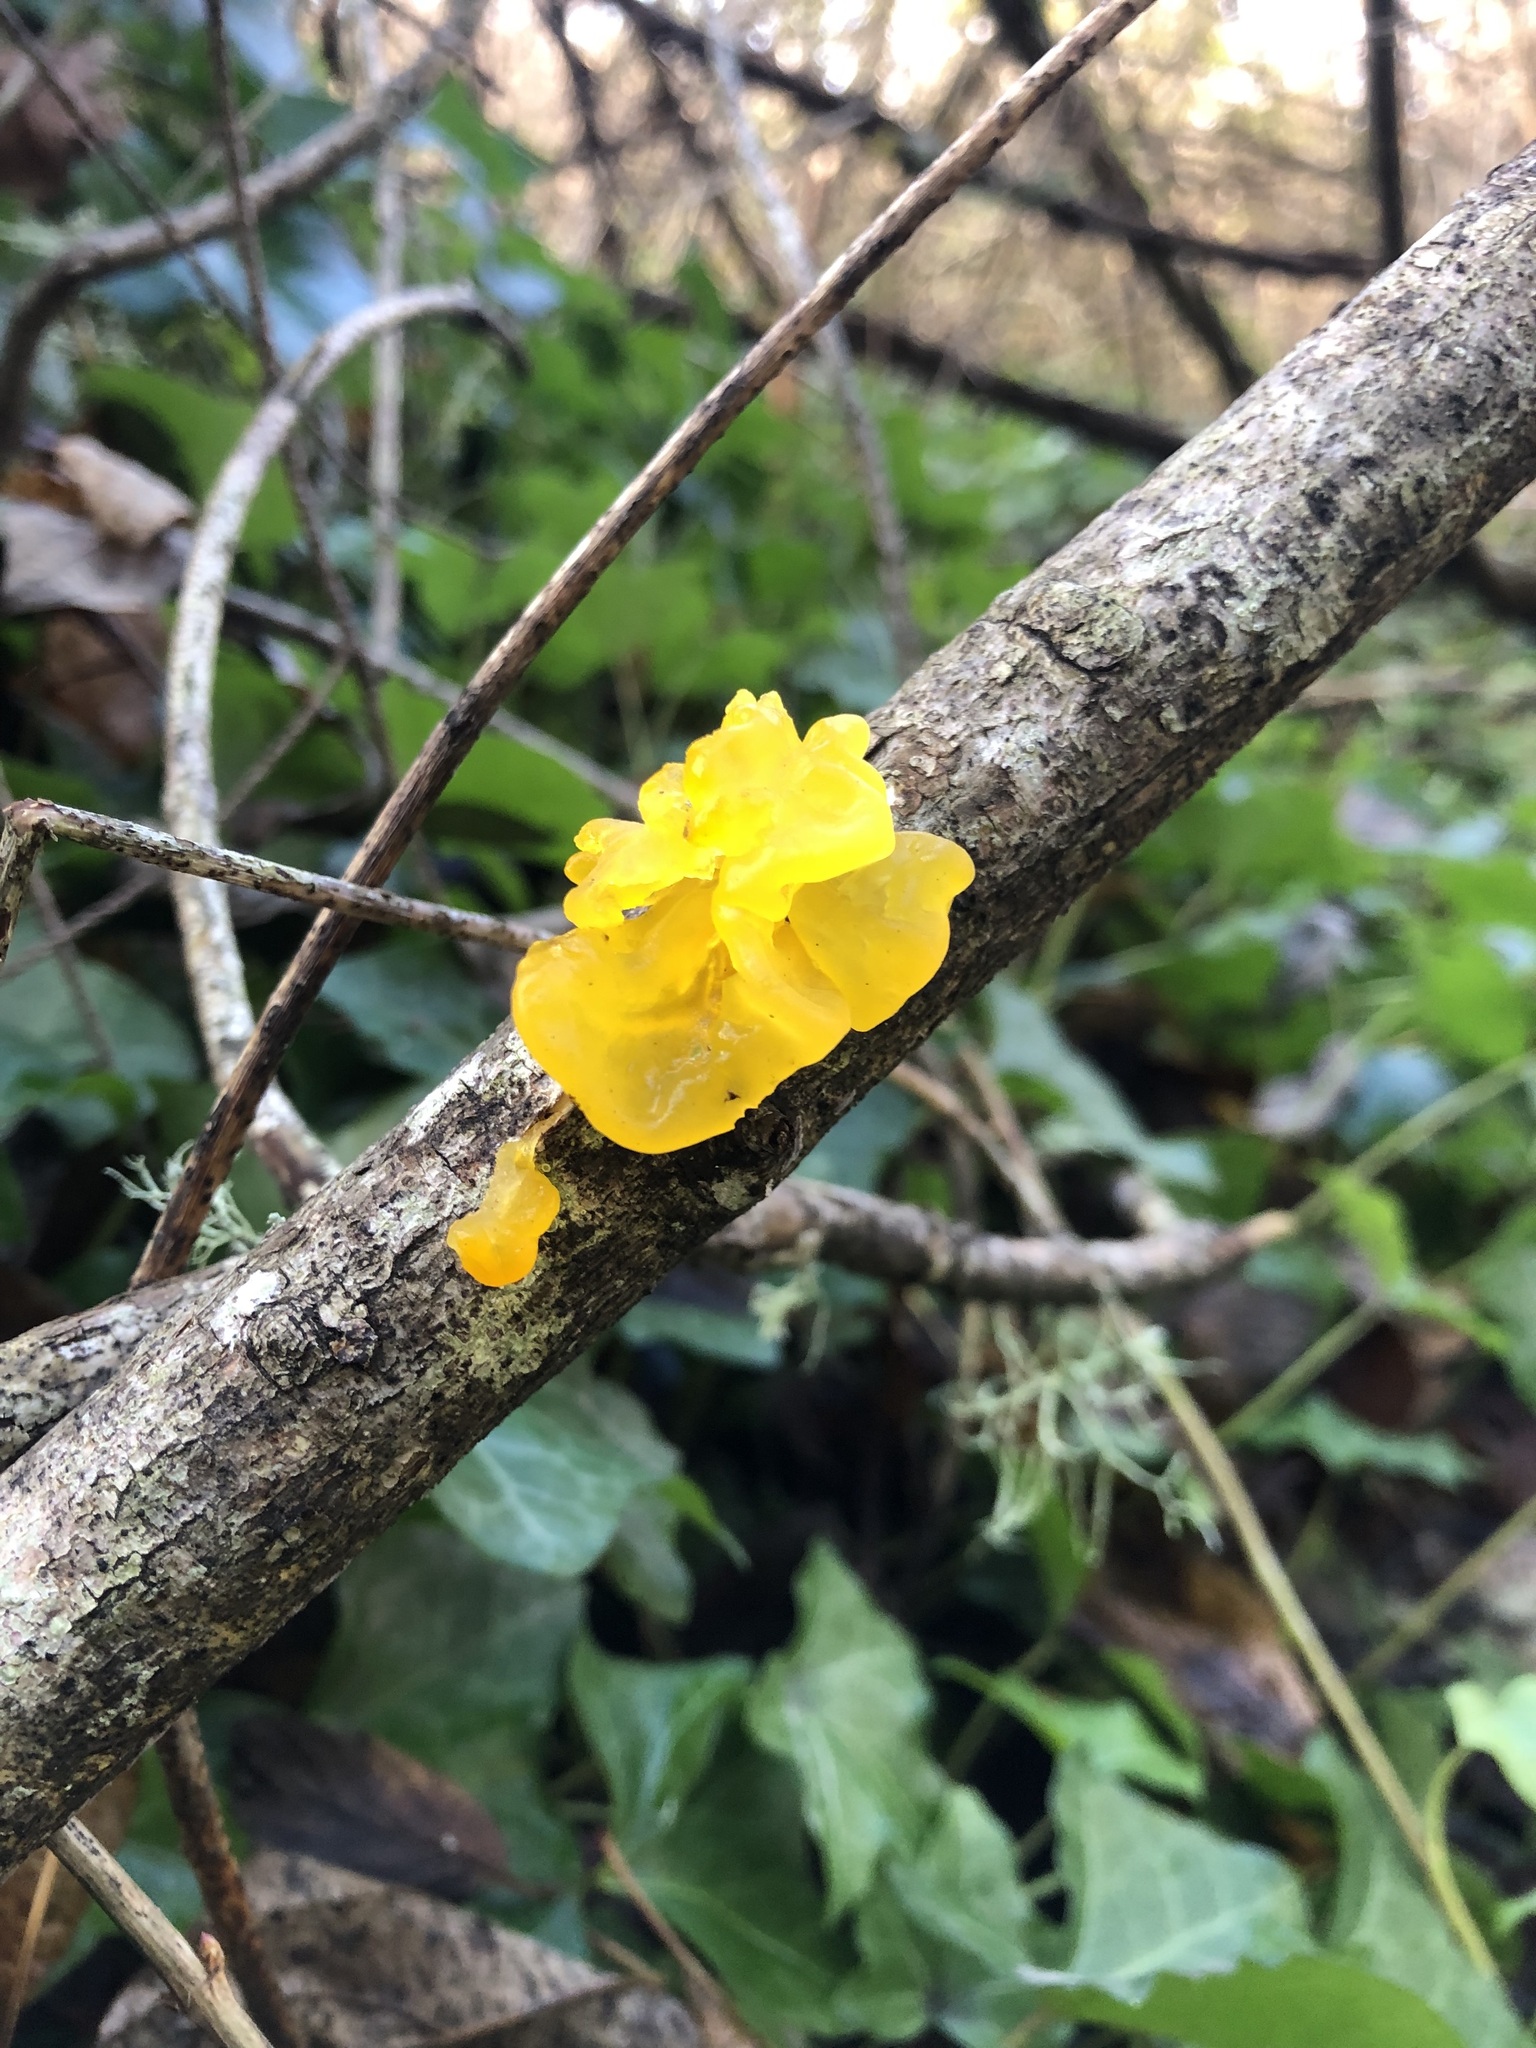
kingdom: Fungi
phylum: Basidiomycota
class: Tremellomycetes
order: Tremellales
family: Tremellaceae
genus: Tremella
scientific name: Tremella mesenterica
